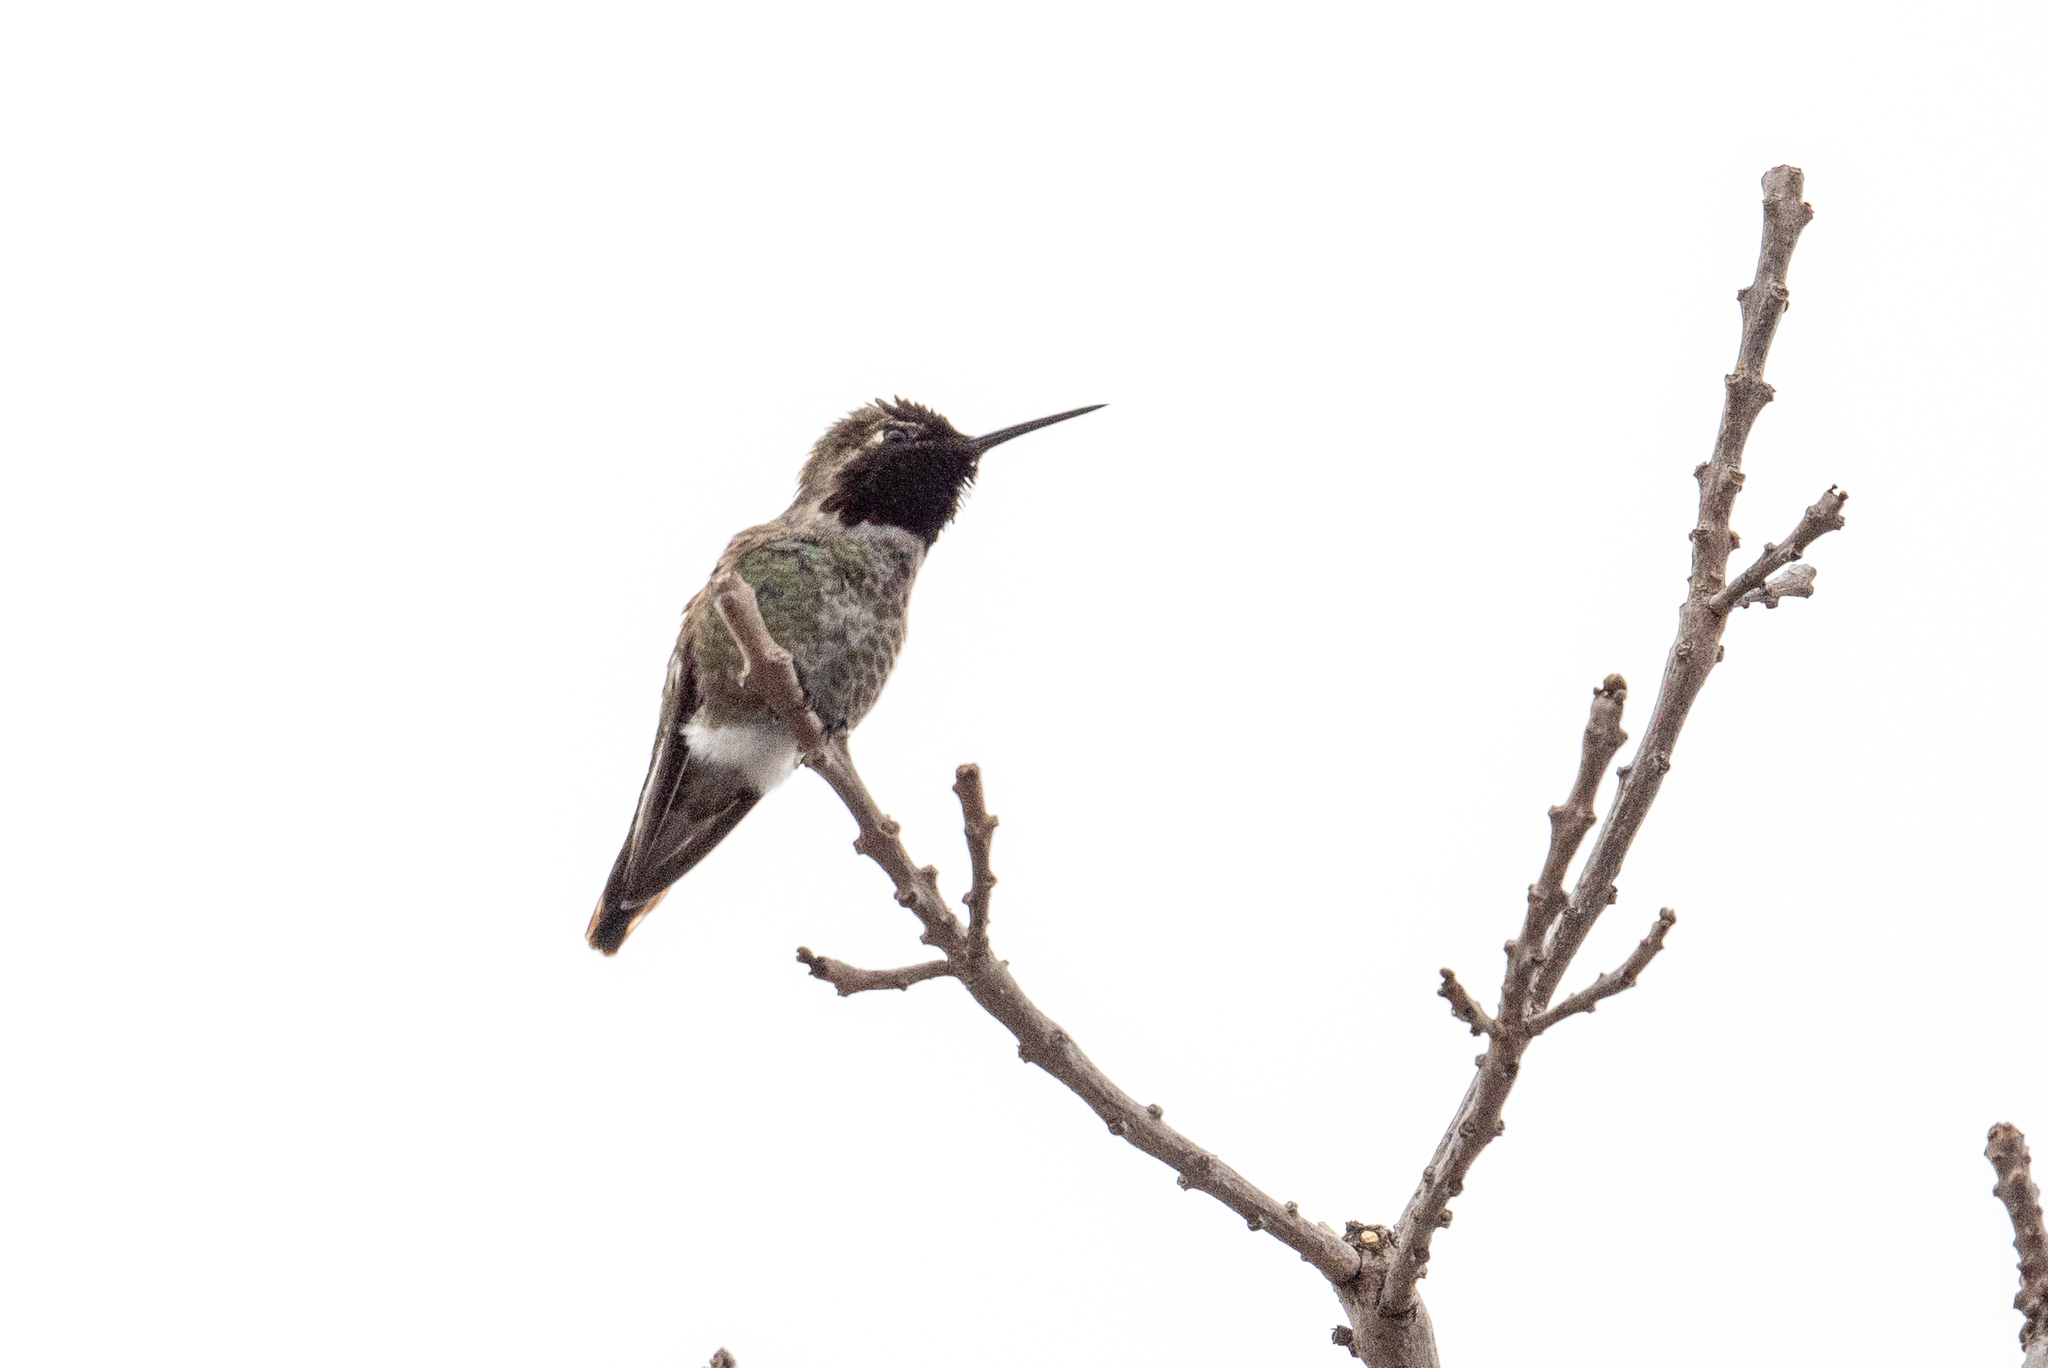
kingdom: Animalia
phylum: Chordata
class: Aves
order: Apodiformes
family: Trochilidae
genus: Calypte
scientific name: Calypte anna
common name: Anna's hummingbird
